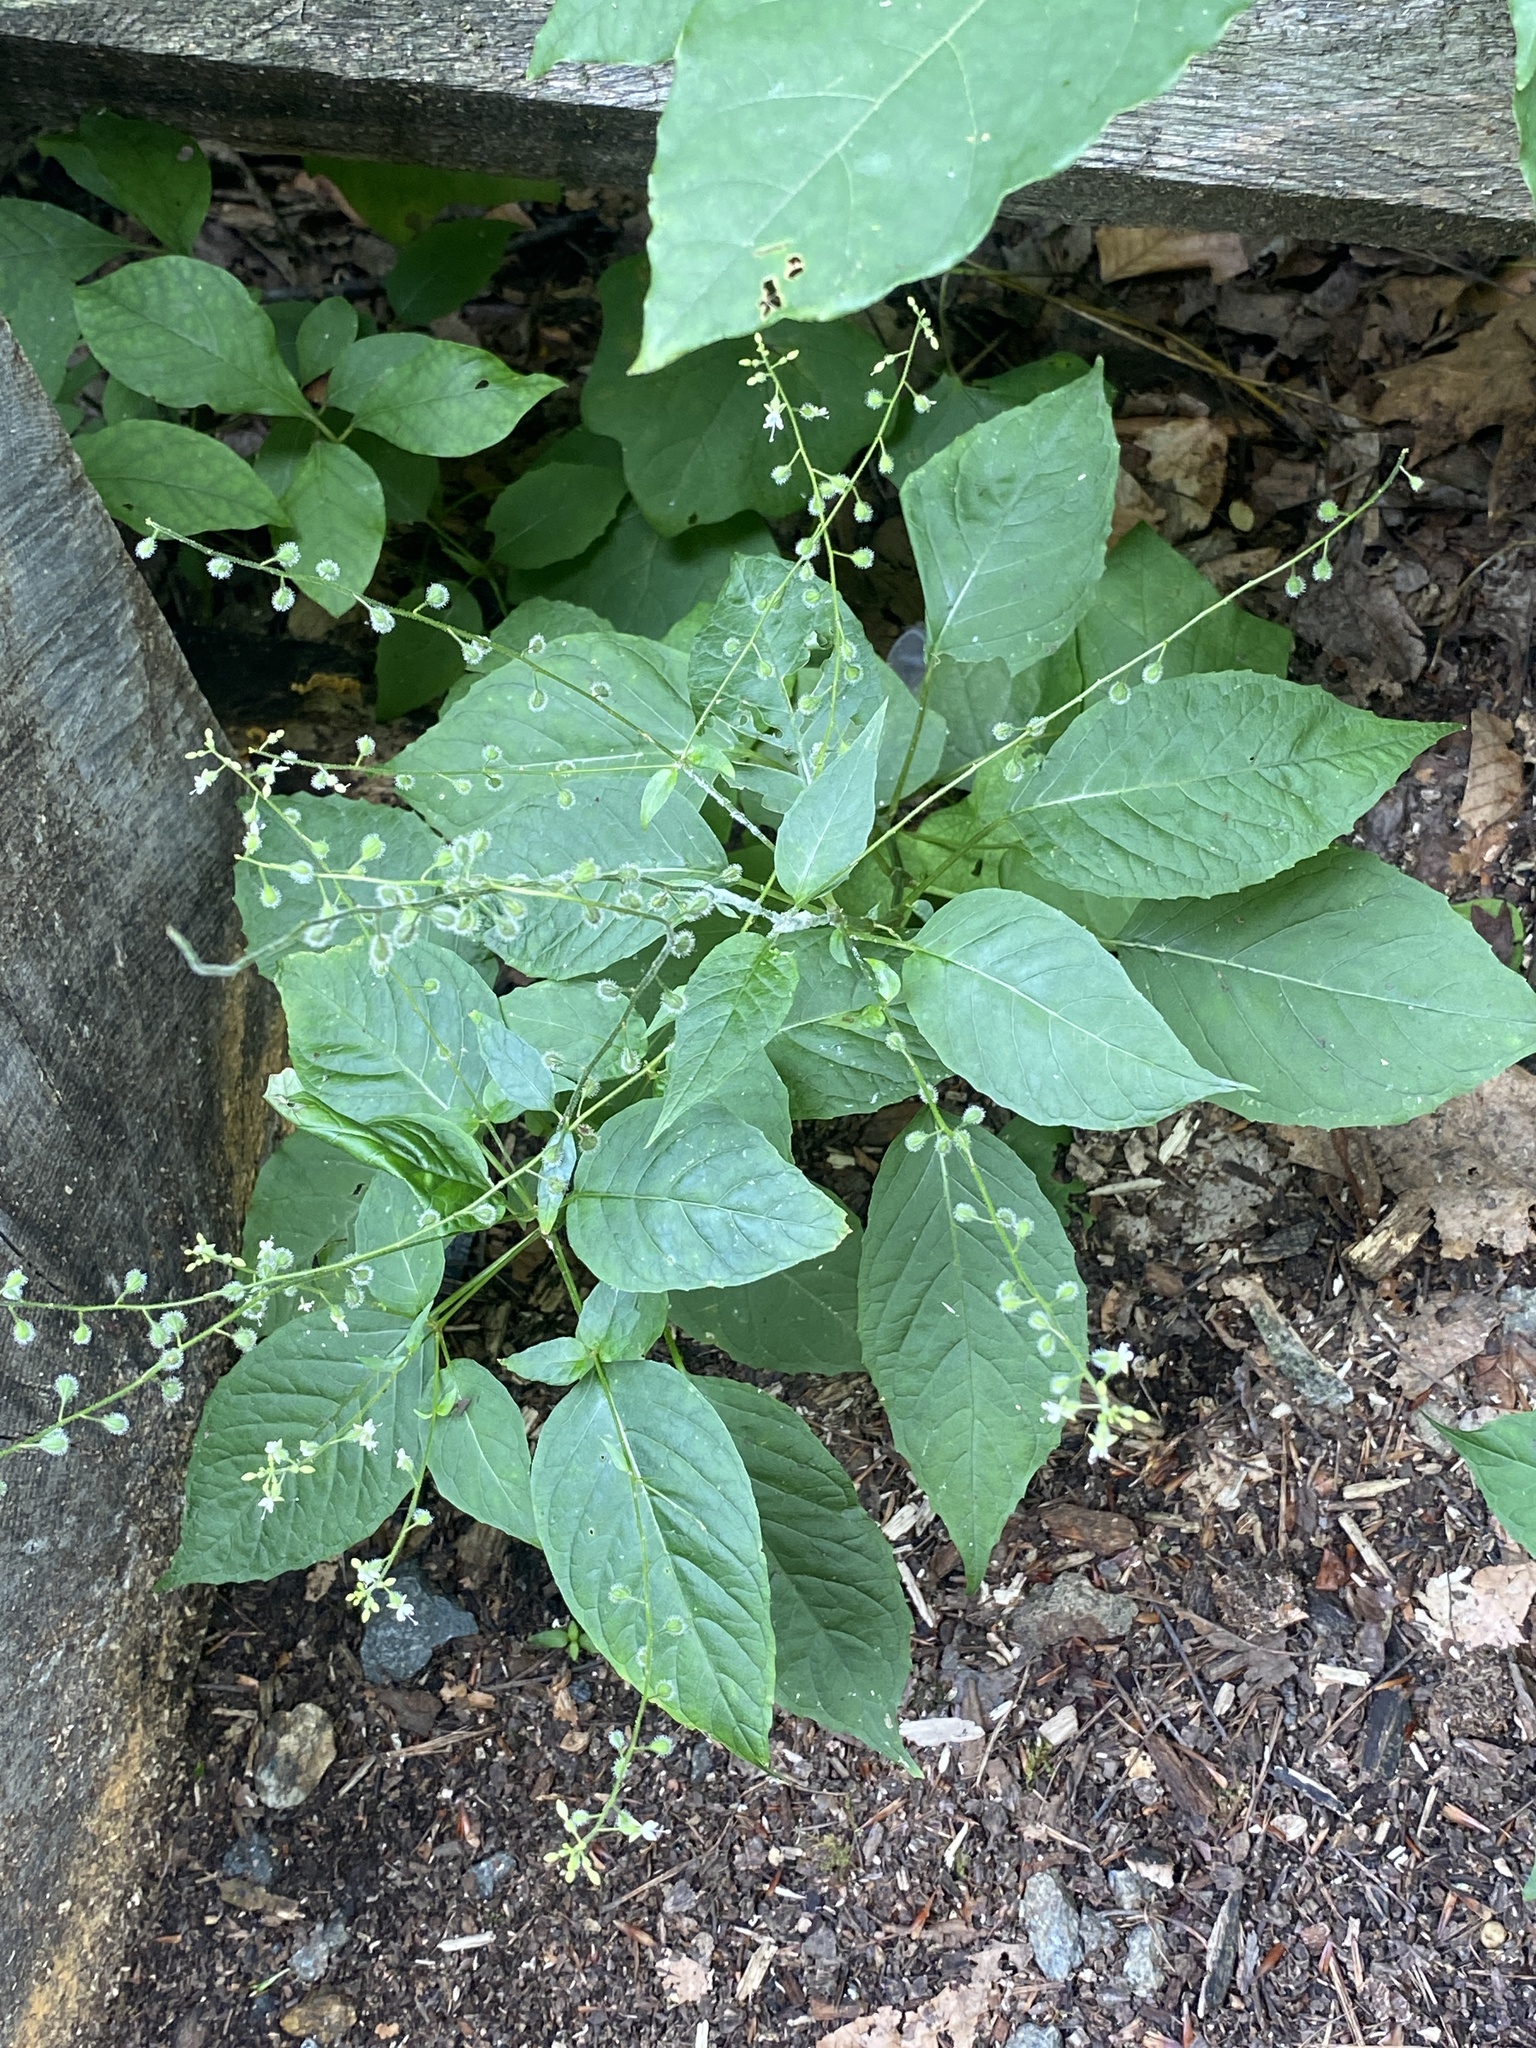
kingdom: Plantae
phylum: Tracheophyta
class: Magnoliopsida
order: Myrtales
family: Onagraceae
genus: Circaea
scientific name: Circaea canadensis
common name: Broad-leaved enchanter's nightshade
